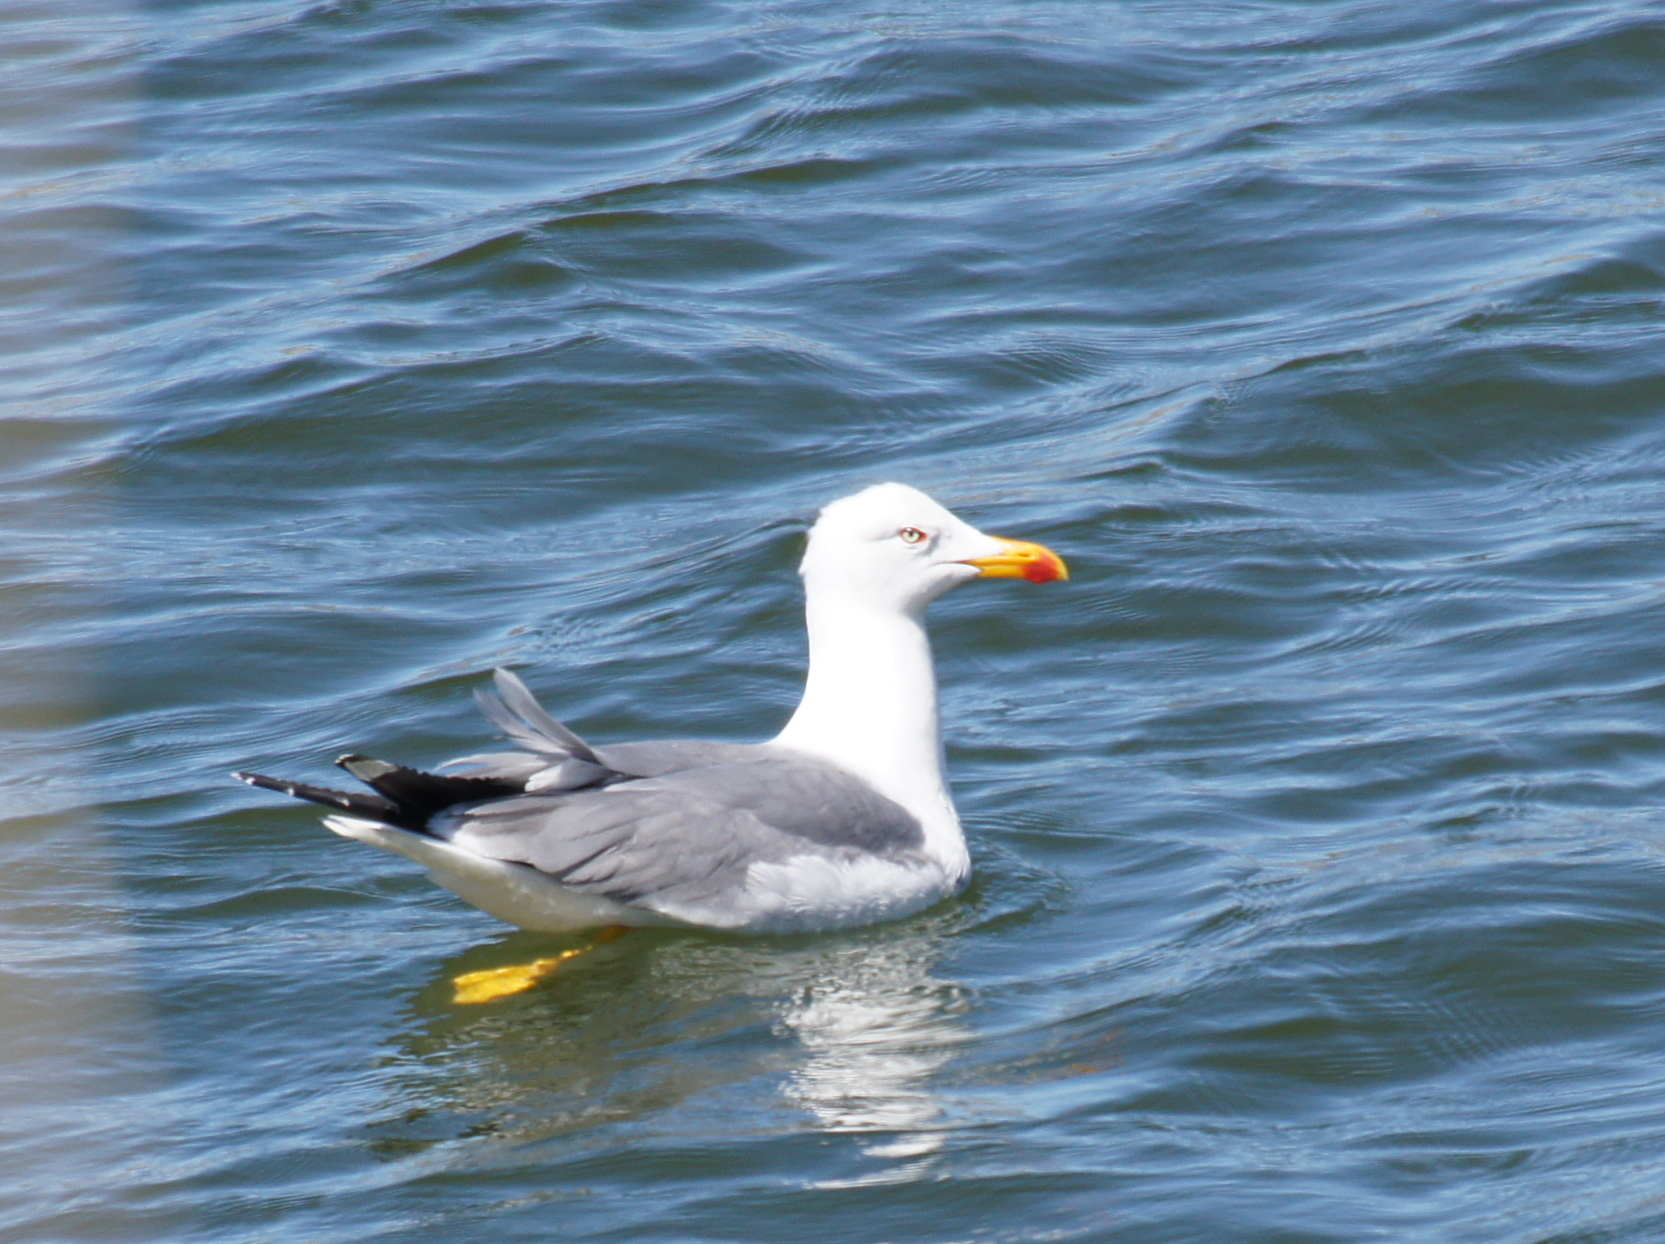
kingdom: Animalia
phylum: Chordata
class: Aves
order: Charadriiformes
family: Laridae
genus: Larus
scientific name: Larus michahellis
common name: Yellow-legged gull
